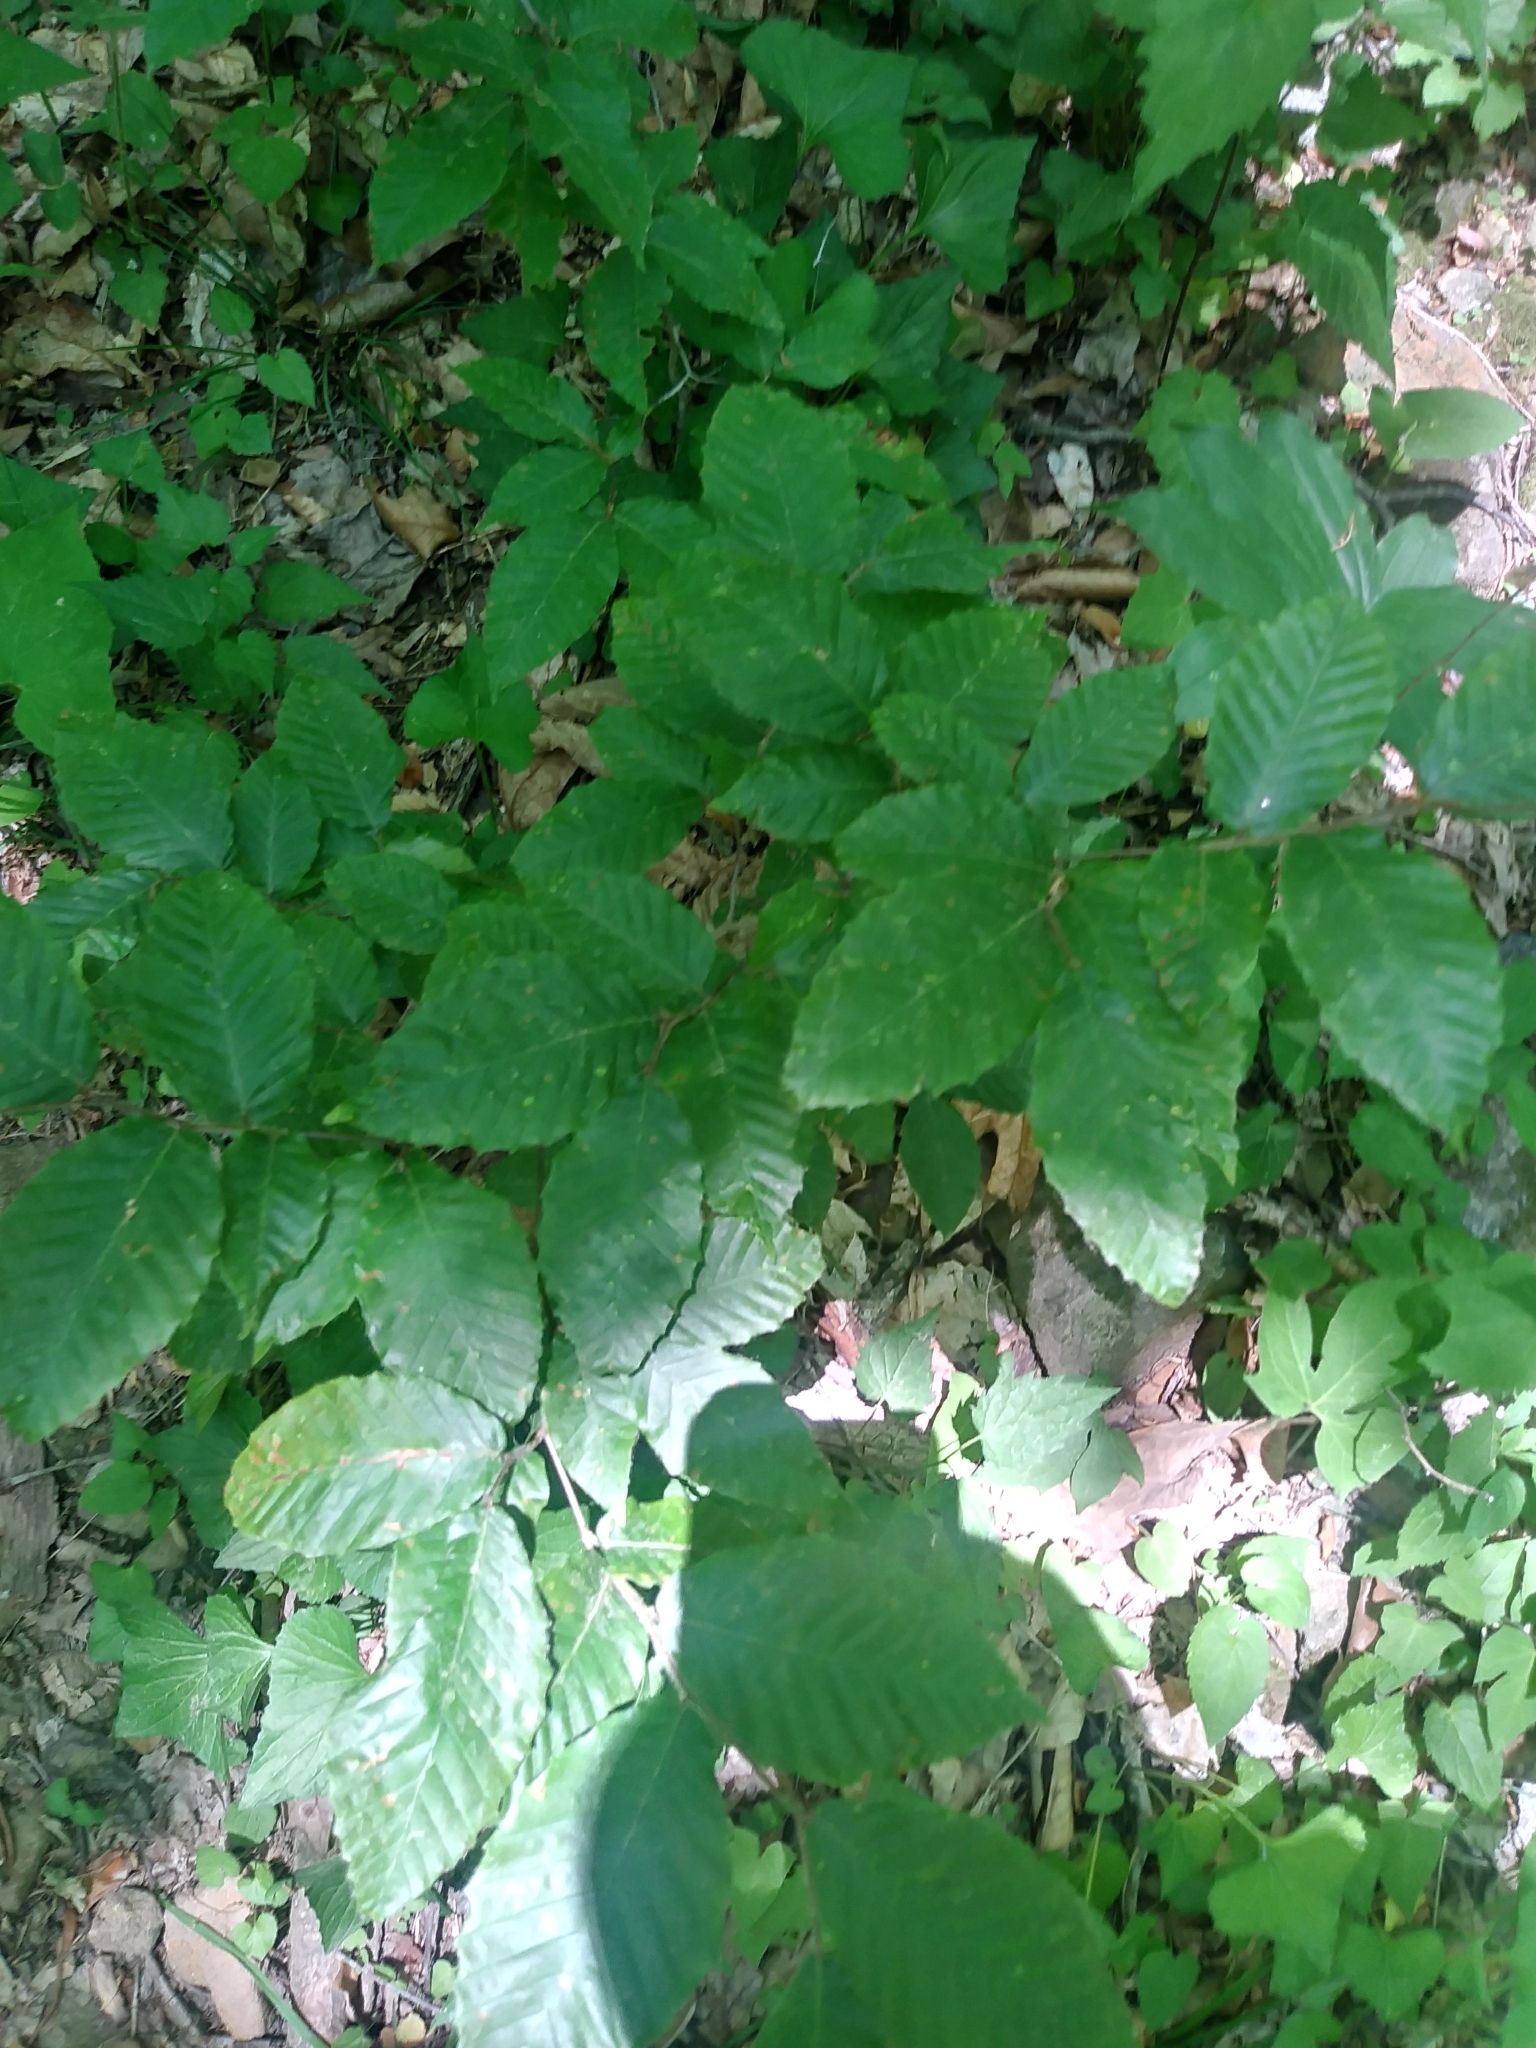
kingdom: Plantae
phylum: Tracheophyta
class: Magnoliopsida
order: Fagales
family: Fagaceae
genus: Fagus
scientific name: Fagus grandifolia
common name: American beech
